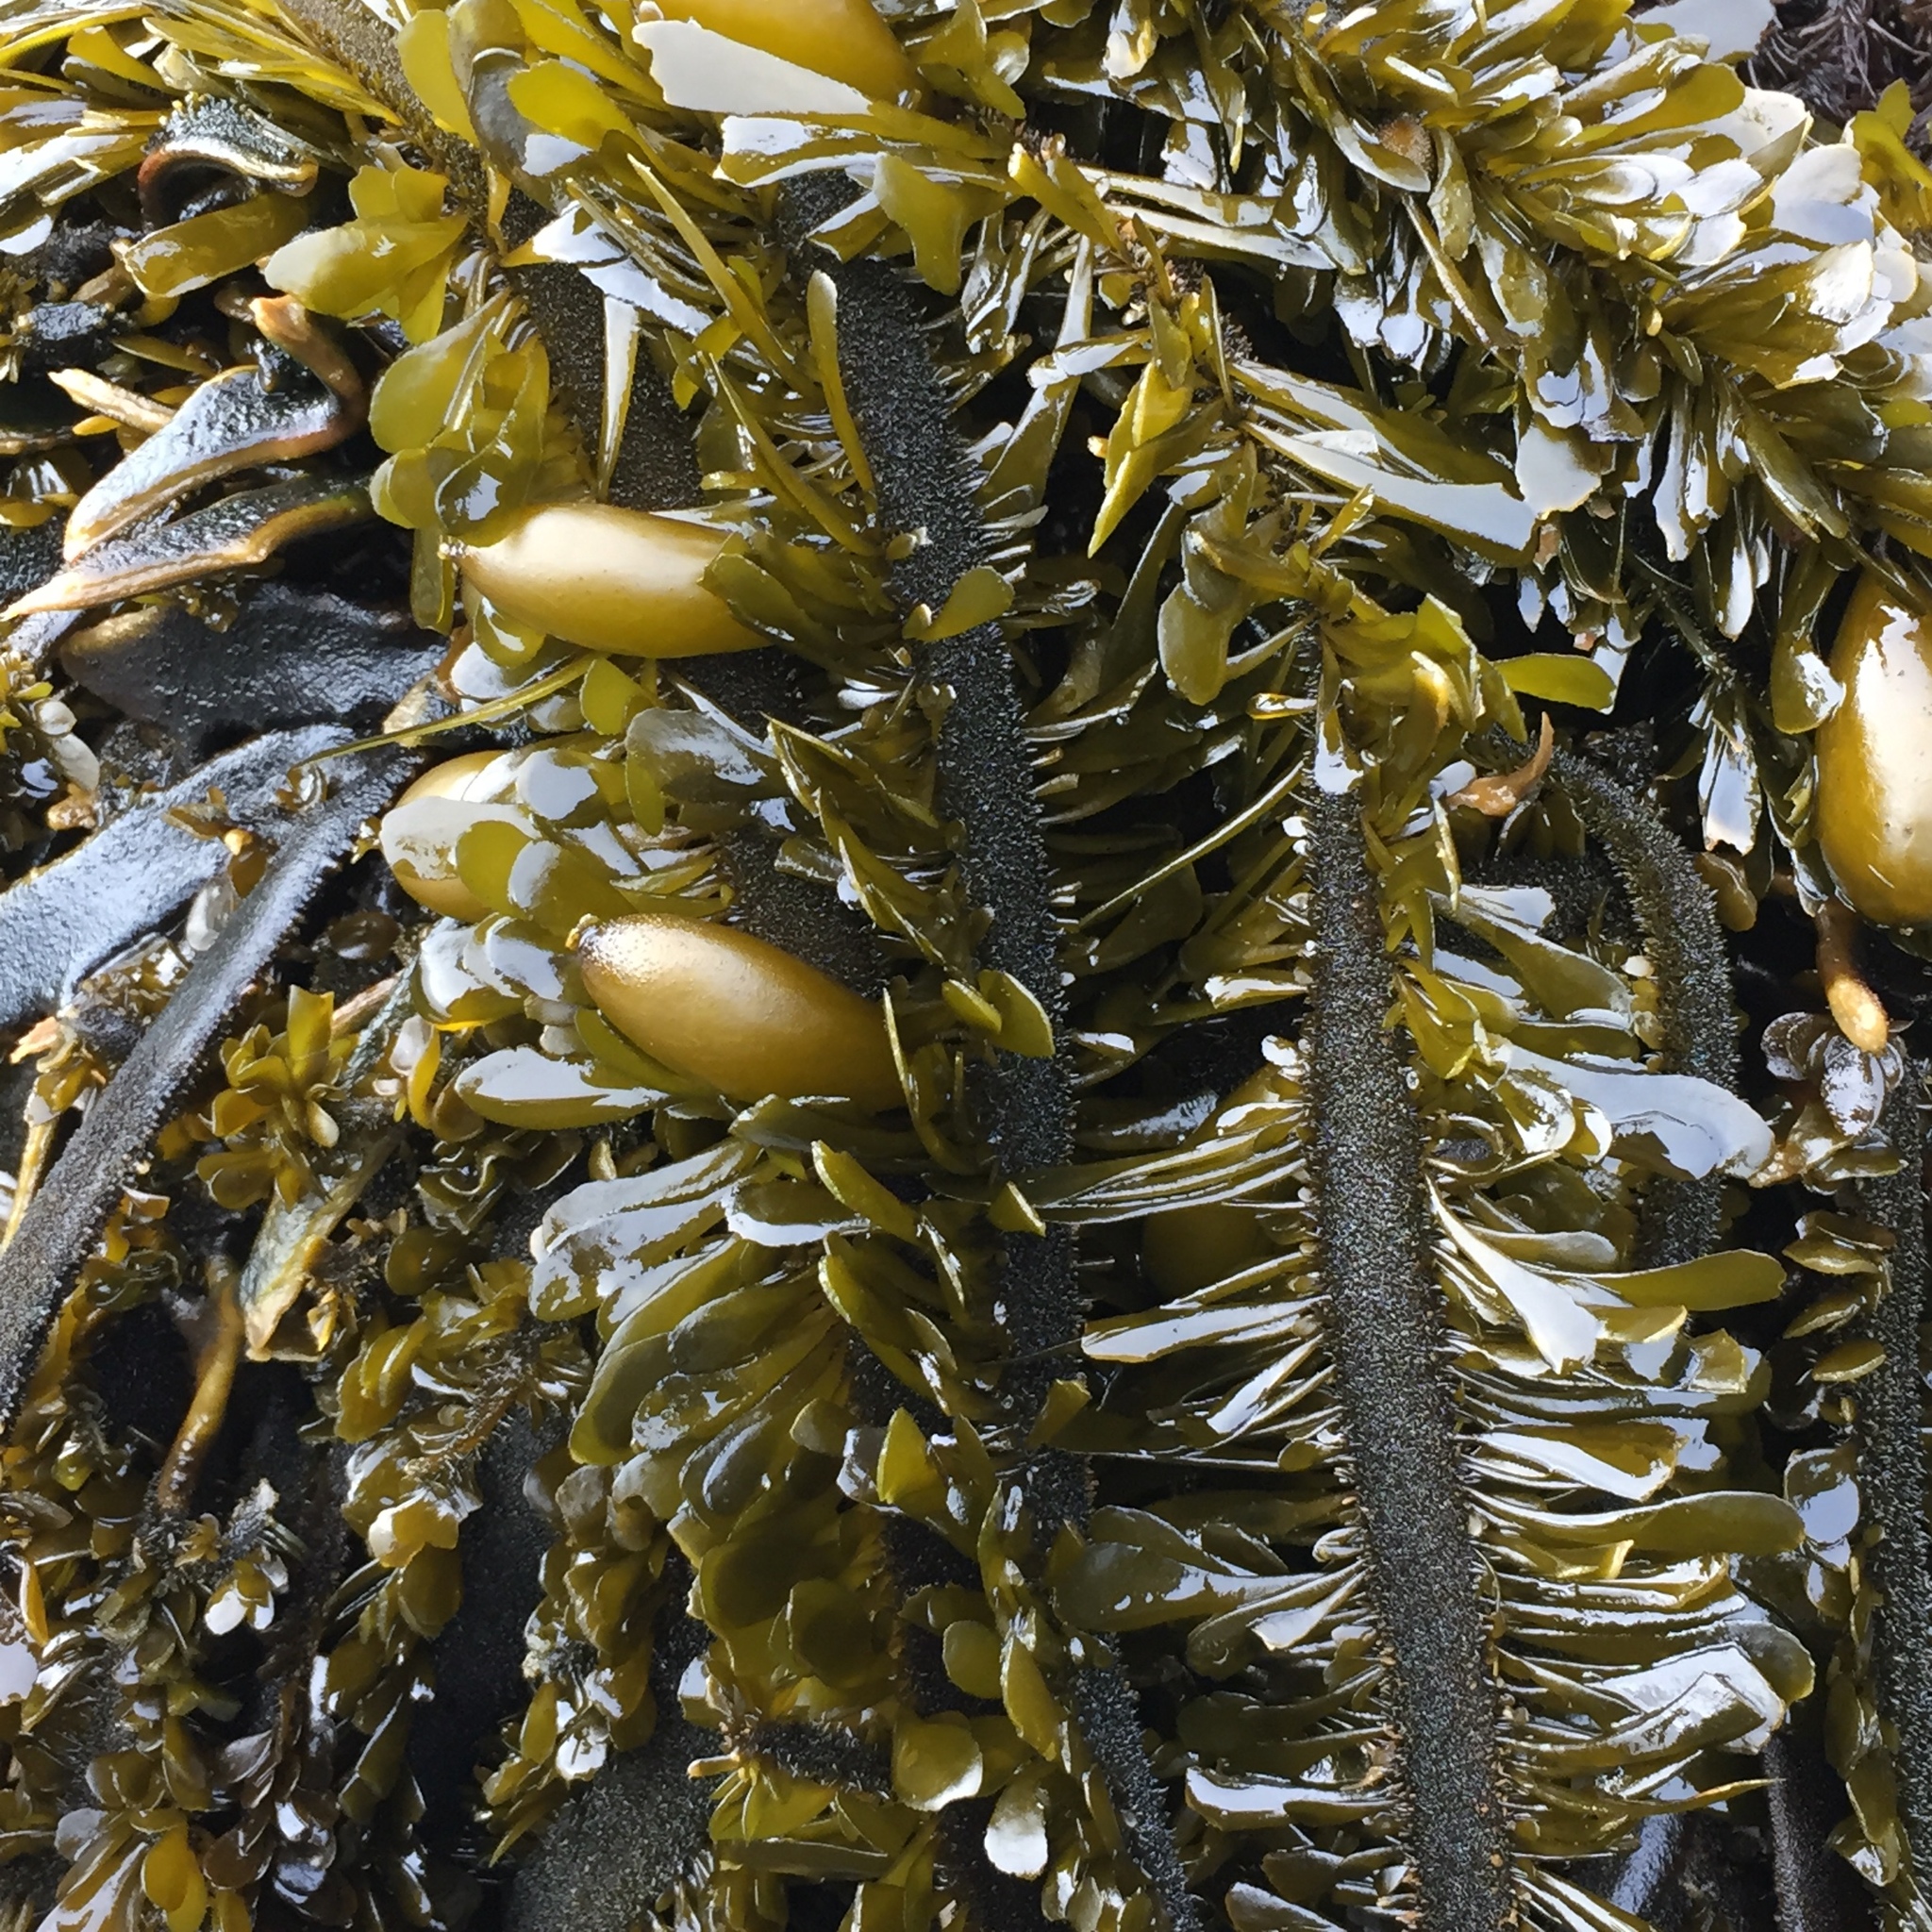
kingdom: Chromista
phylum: Ochrophyta
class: Phaeophyceae
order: Laminariales
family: Lessoniaceae
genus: Egregia
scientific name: Egregia menziesii
